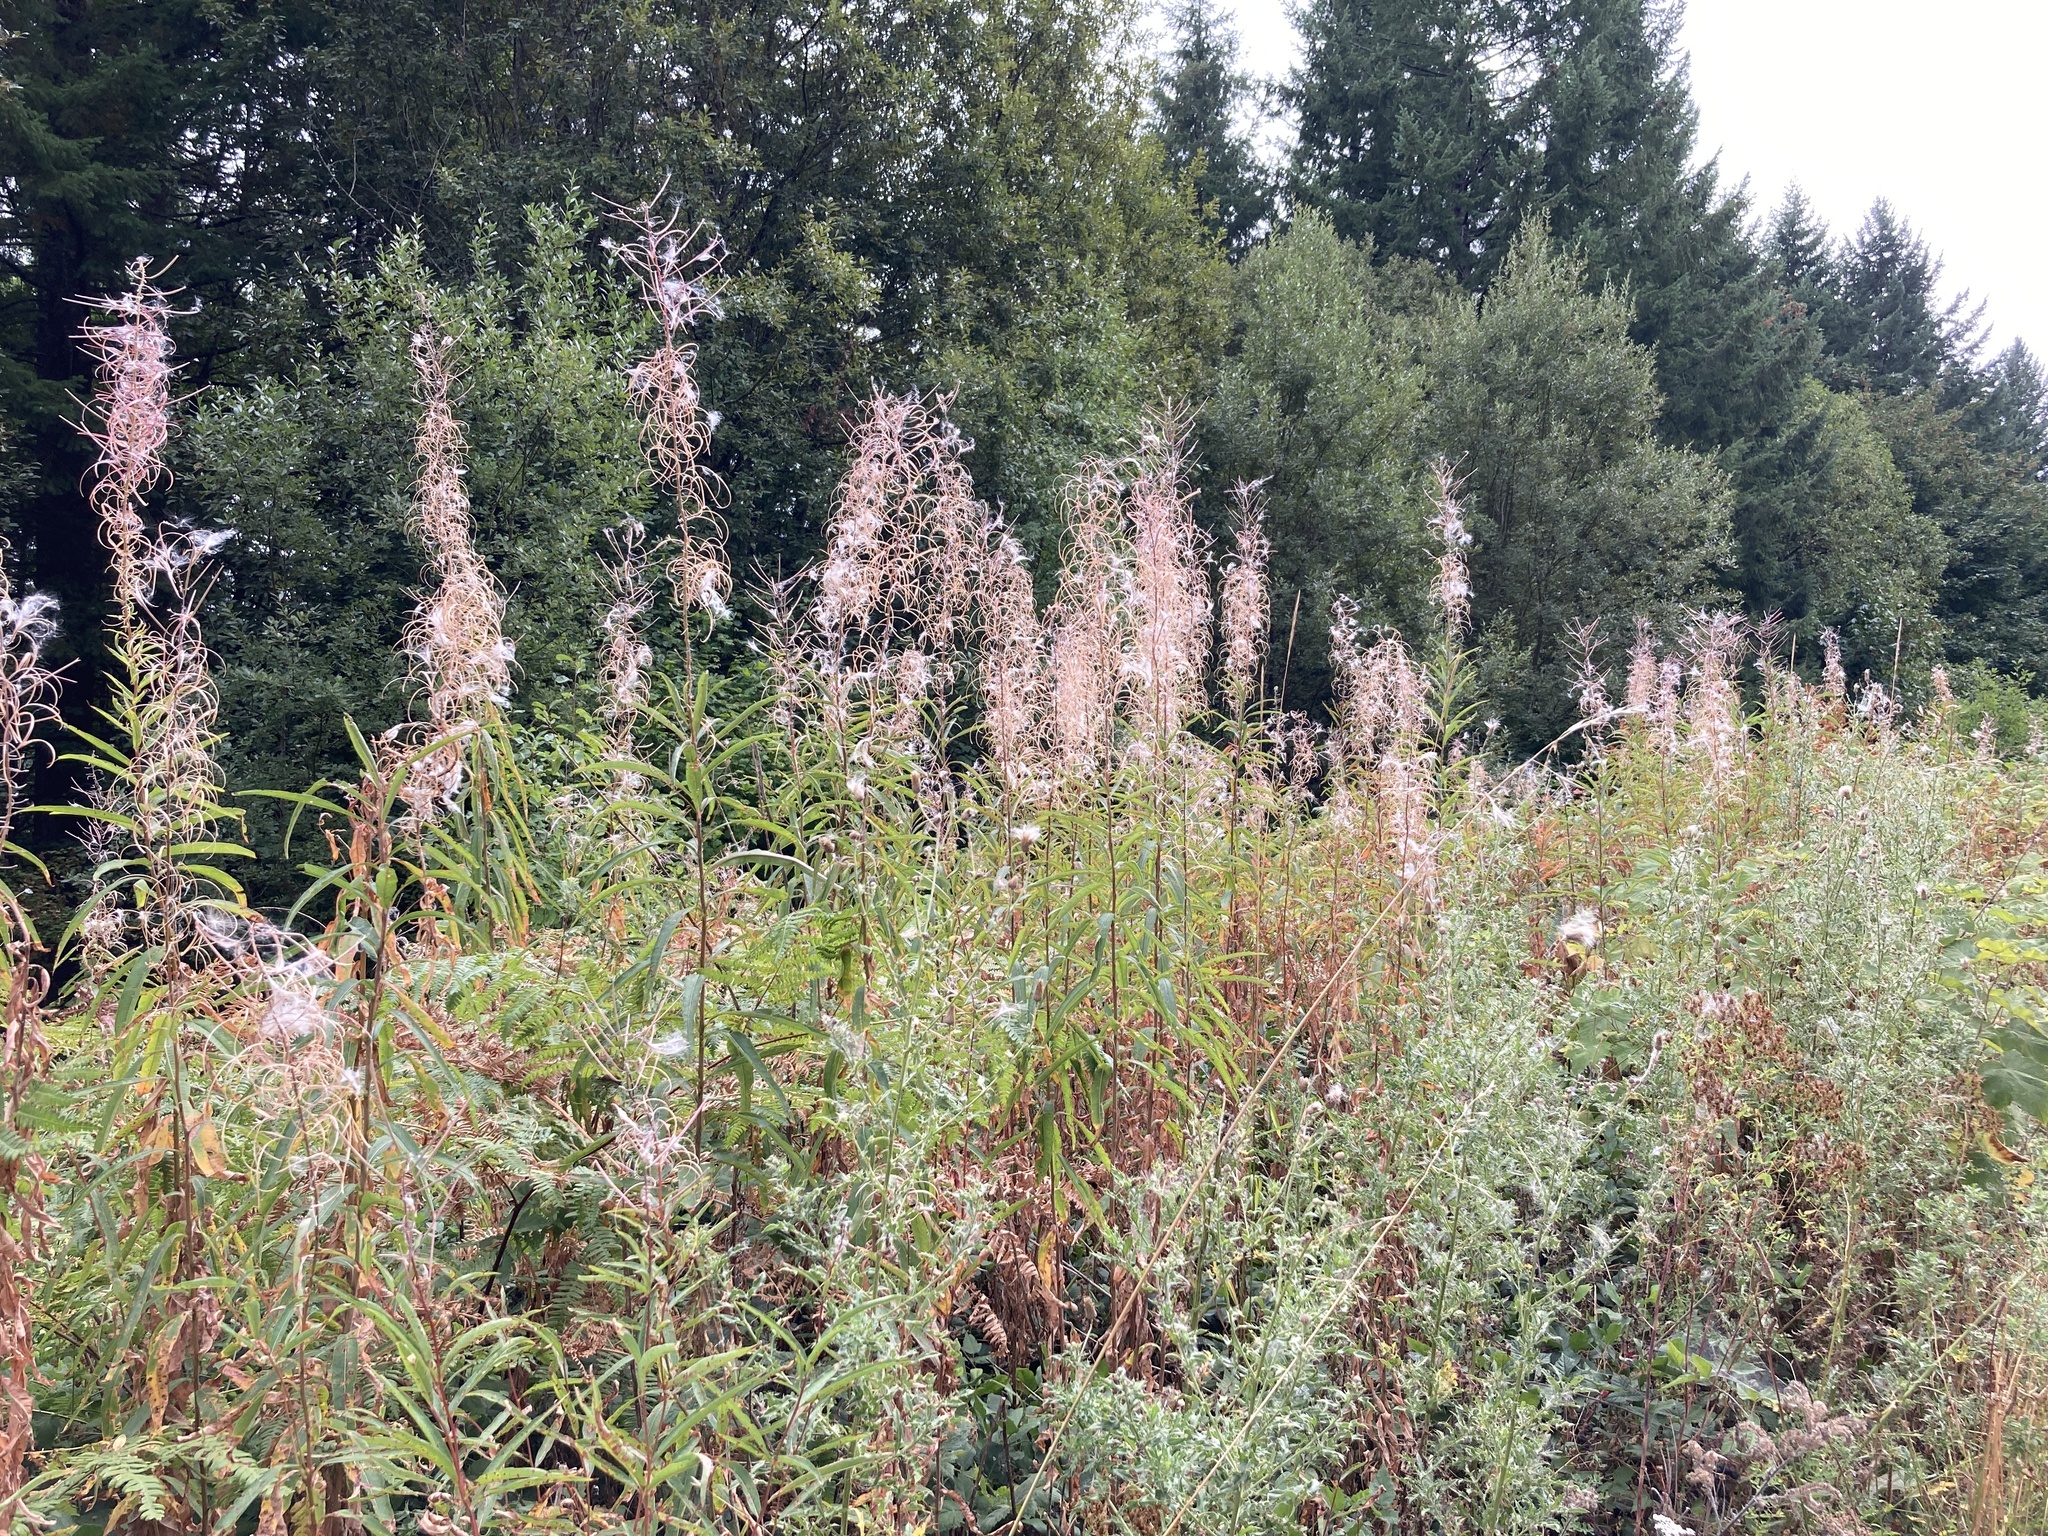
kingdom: Plantae
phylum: Tracheophyta
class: Magnoliopsida
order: Myrtales
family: Onagraceae
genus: Chamaenerion
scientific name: Chamaenerion angustifolium
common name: Fireweed
